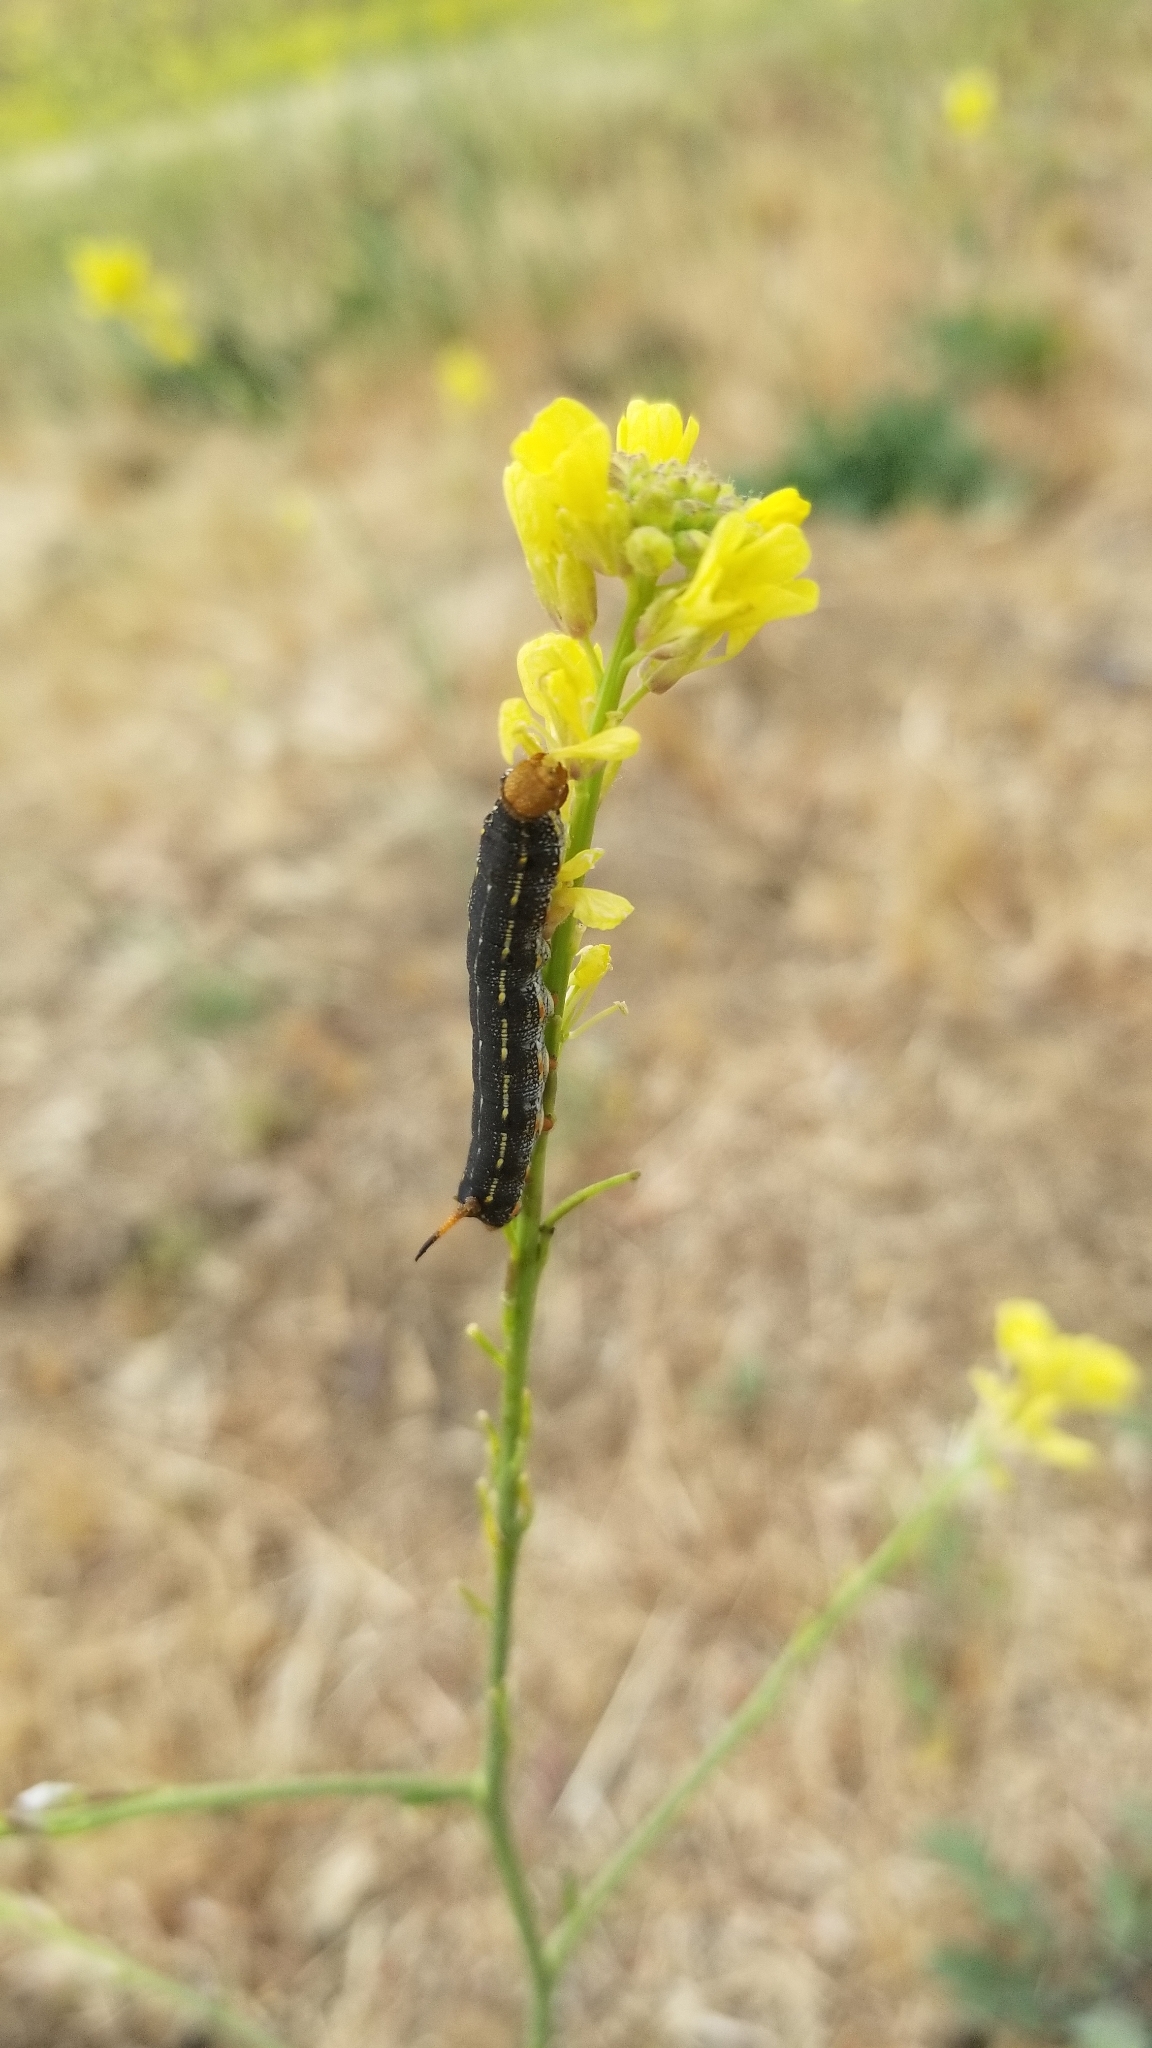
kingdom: Animalia
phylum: Arthropoda
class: Insecta
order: Lepidoptera
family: Sphingidae
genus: Hyles
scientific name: Hyles lineata
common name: White-lined sphinx
